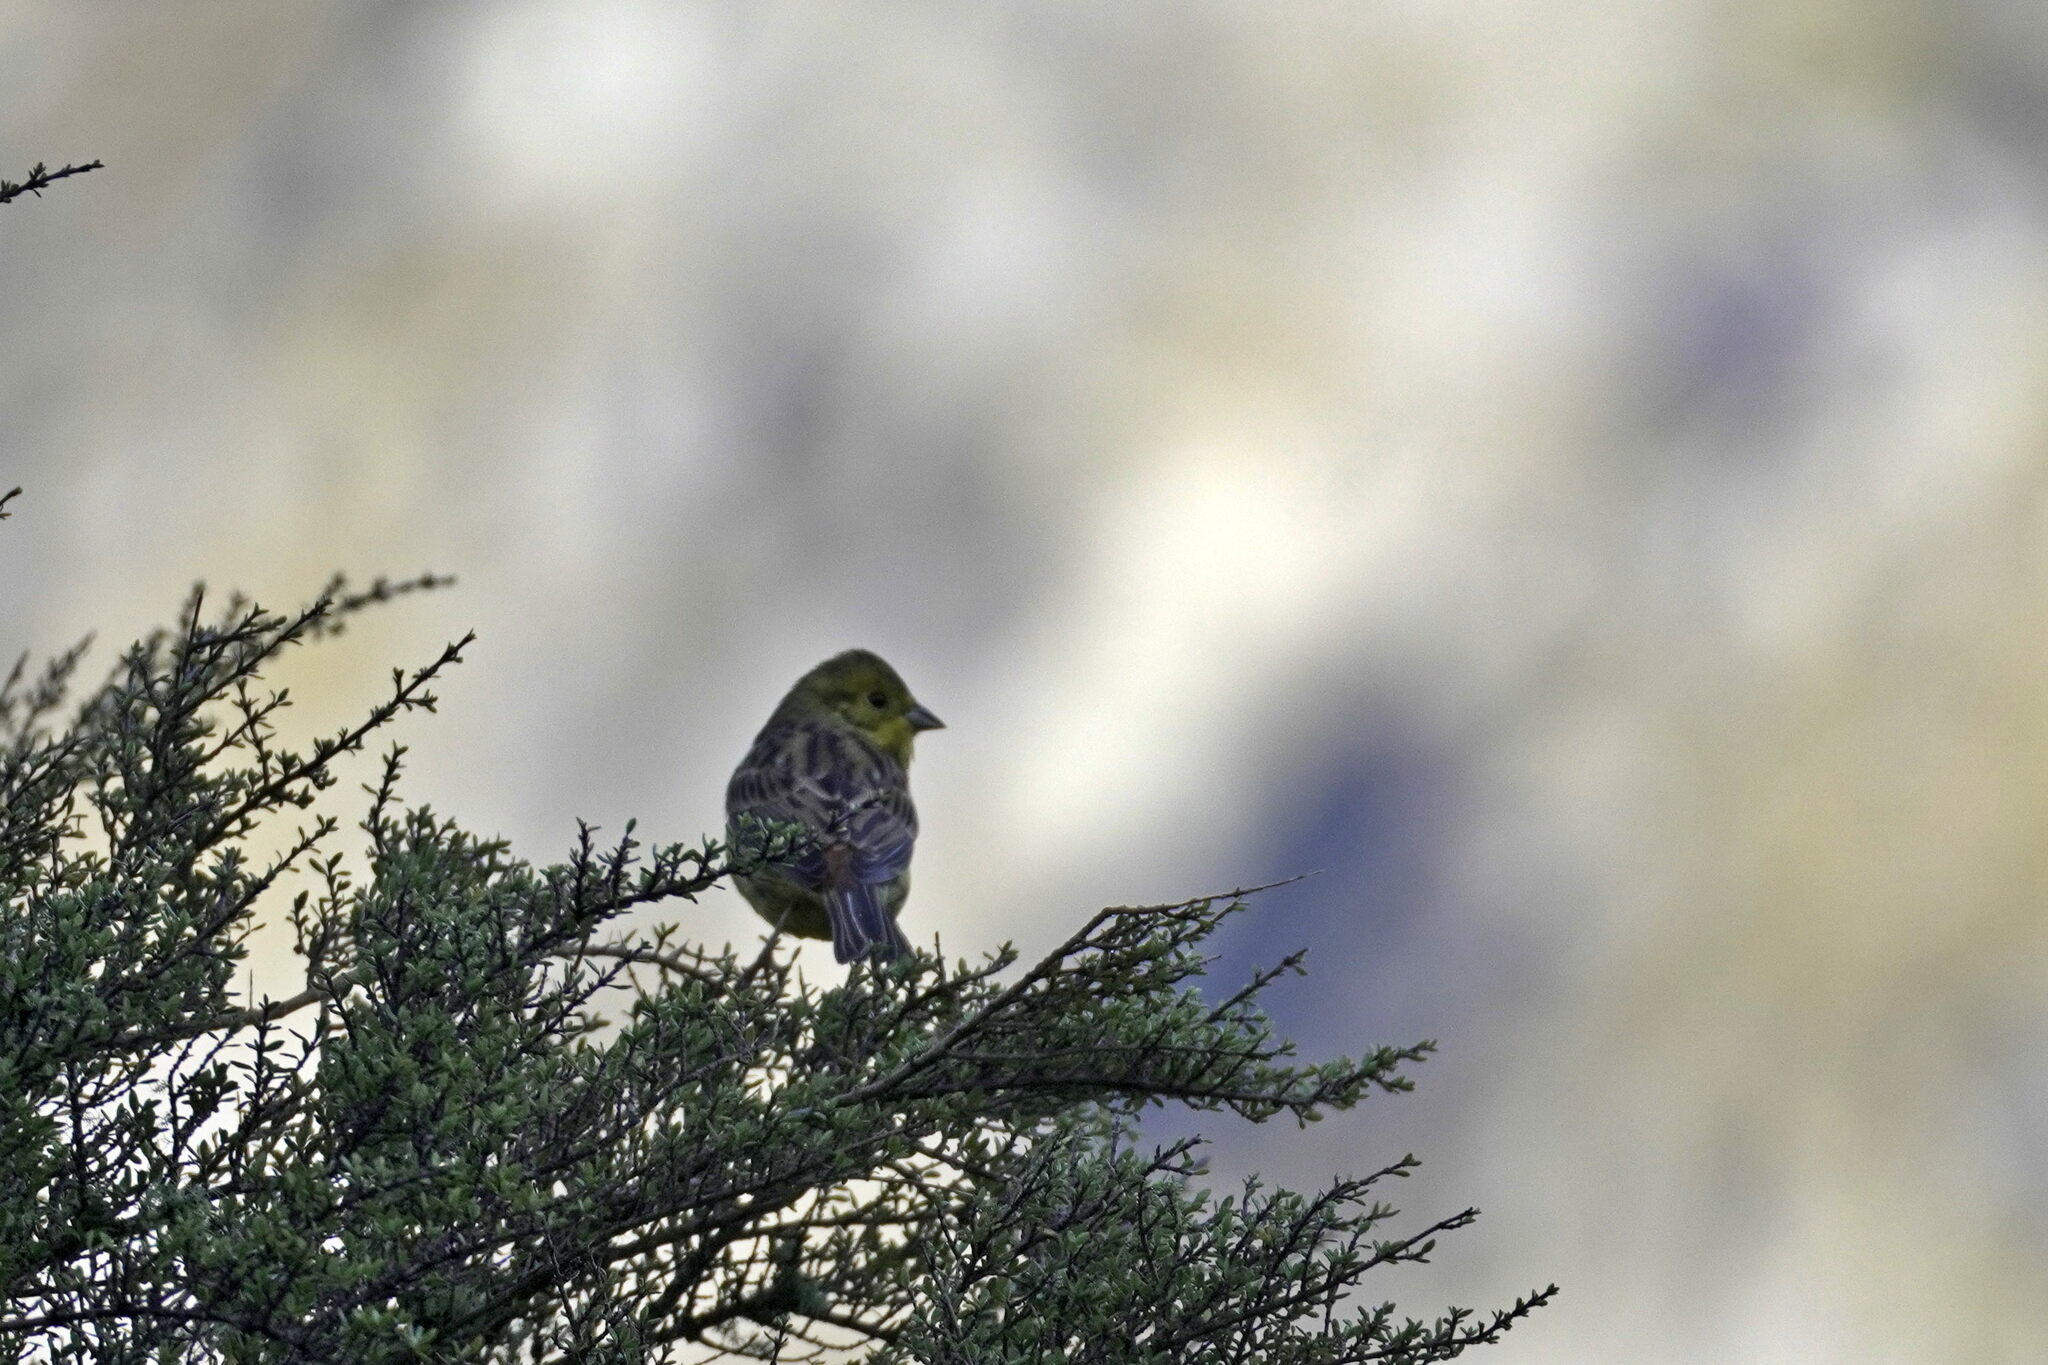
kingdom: Animalia
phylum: Chordata
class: Aves
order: Passeriformes
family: Emberizidae
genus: Emberiza
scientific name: Emberiza citrinella
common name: Yellowhammer
